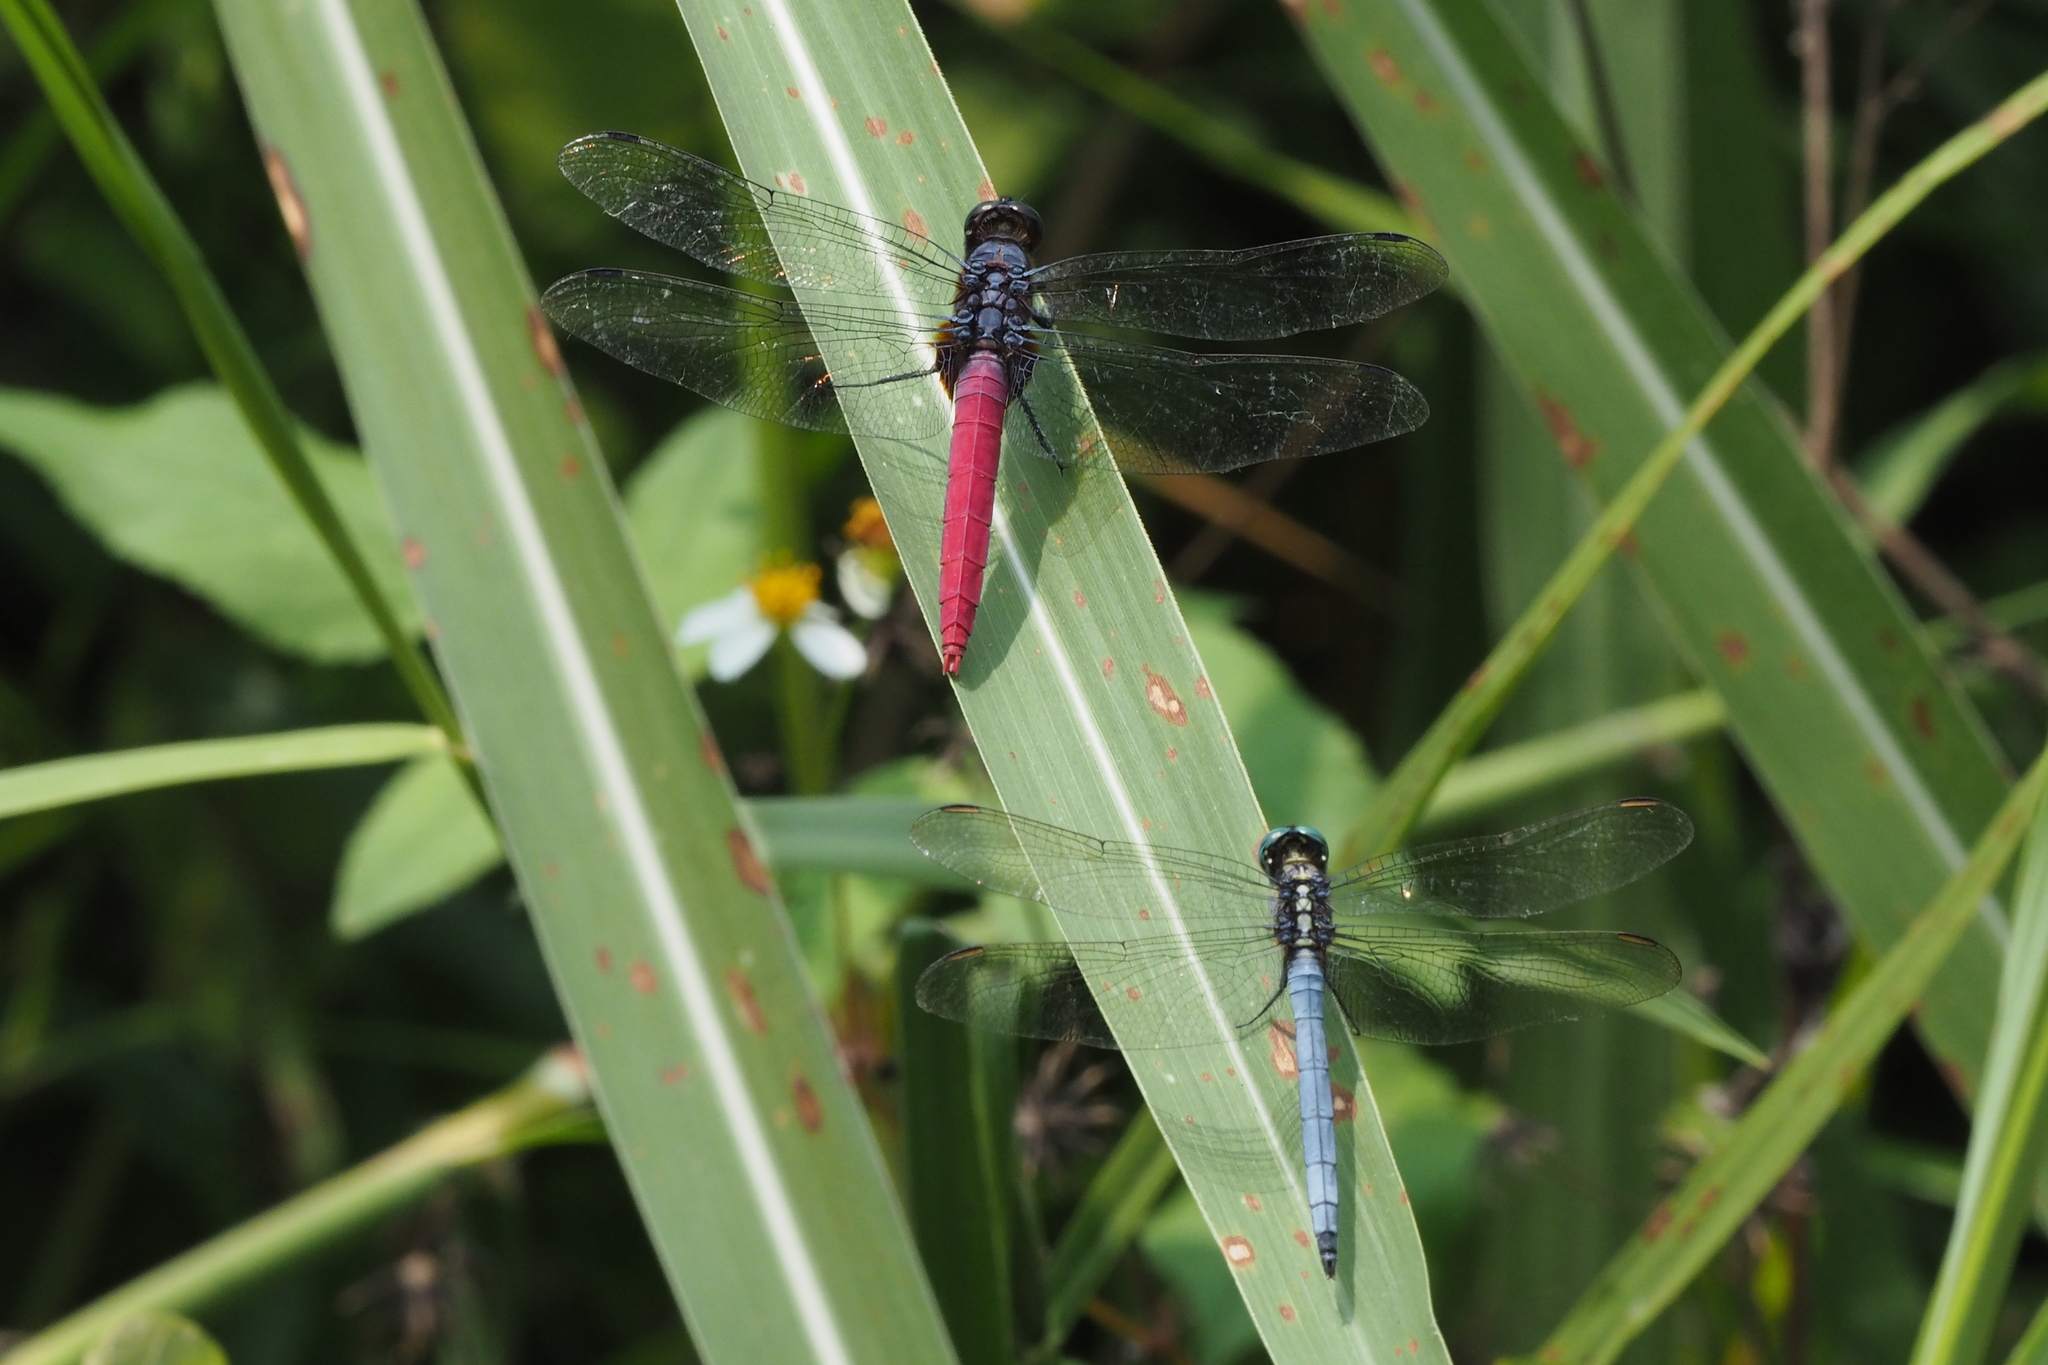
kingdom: Animalia
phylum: Arthropoda
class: Insecta
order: Odonata
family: Libellulidae
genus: Orthetrum
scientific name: Orthetrum pruinosum
